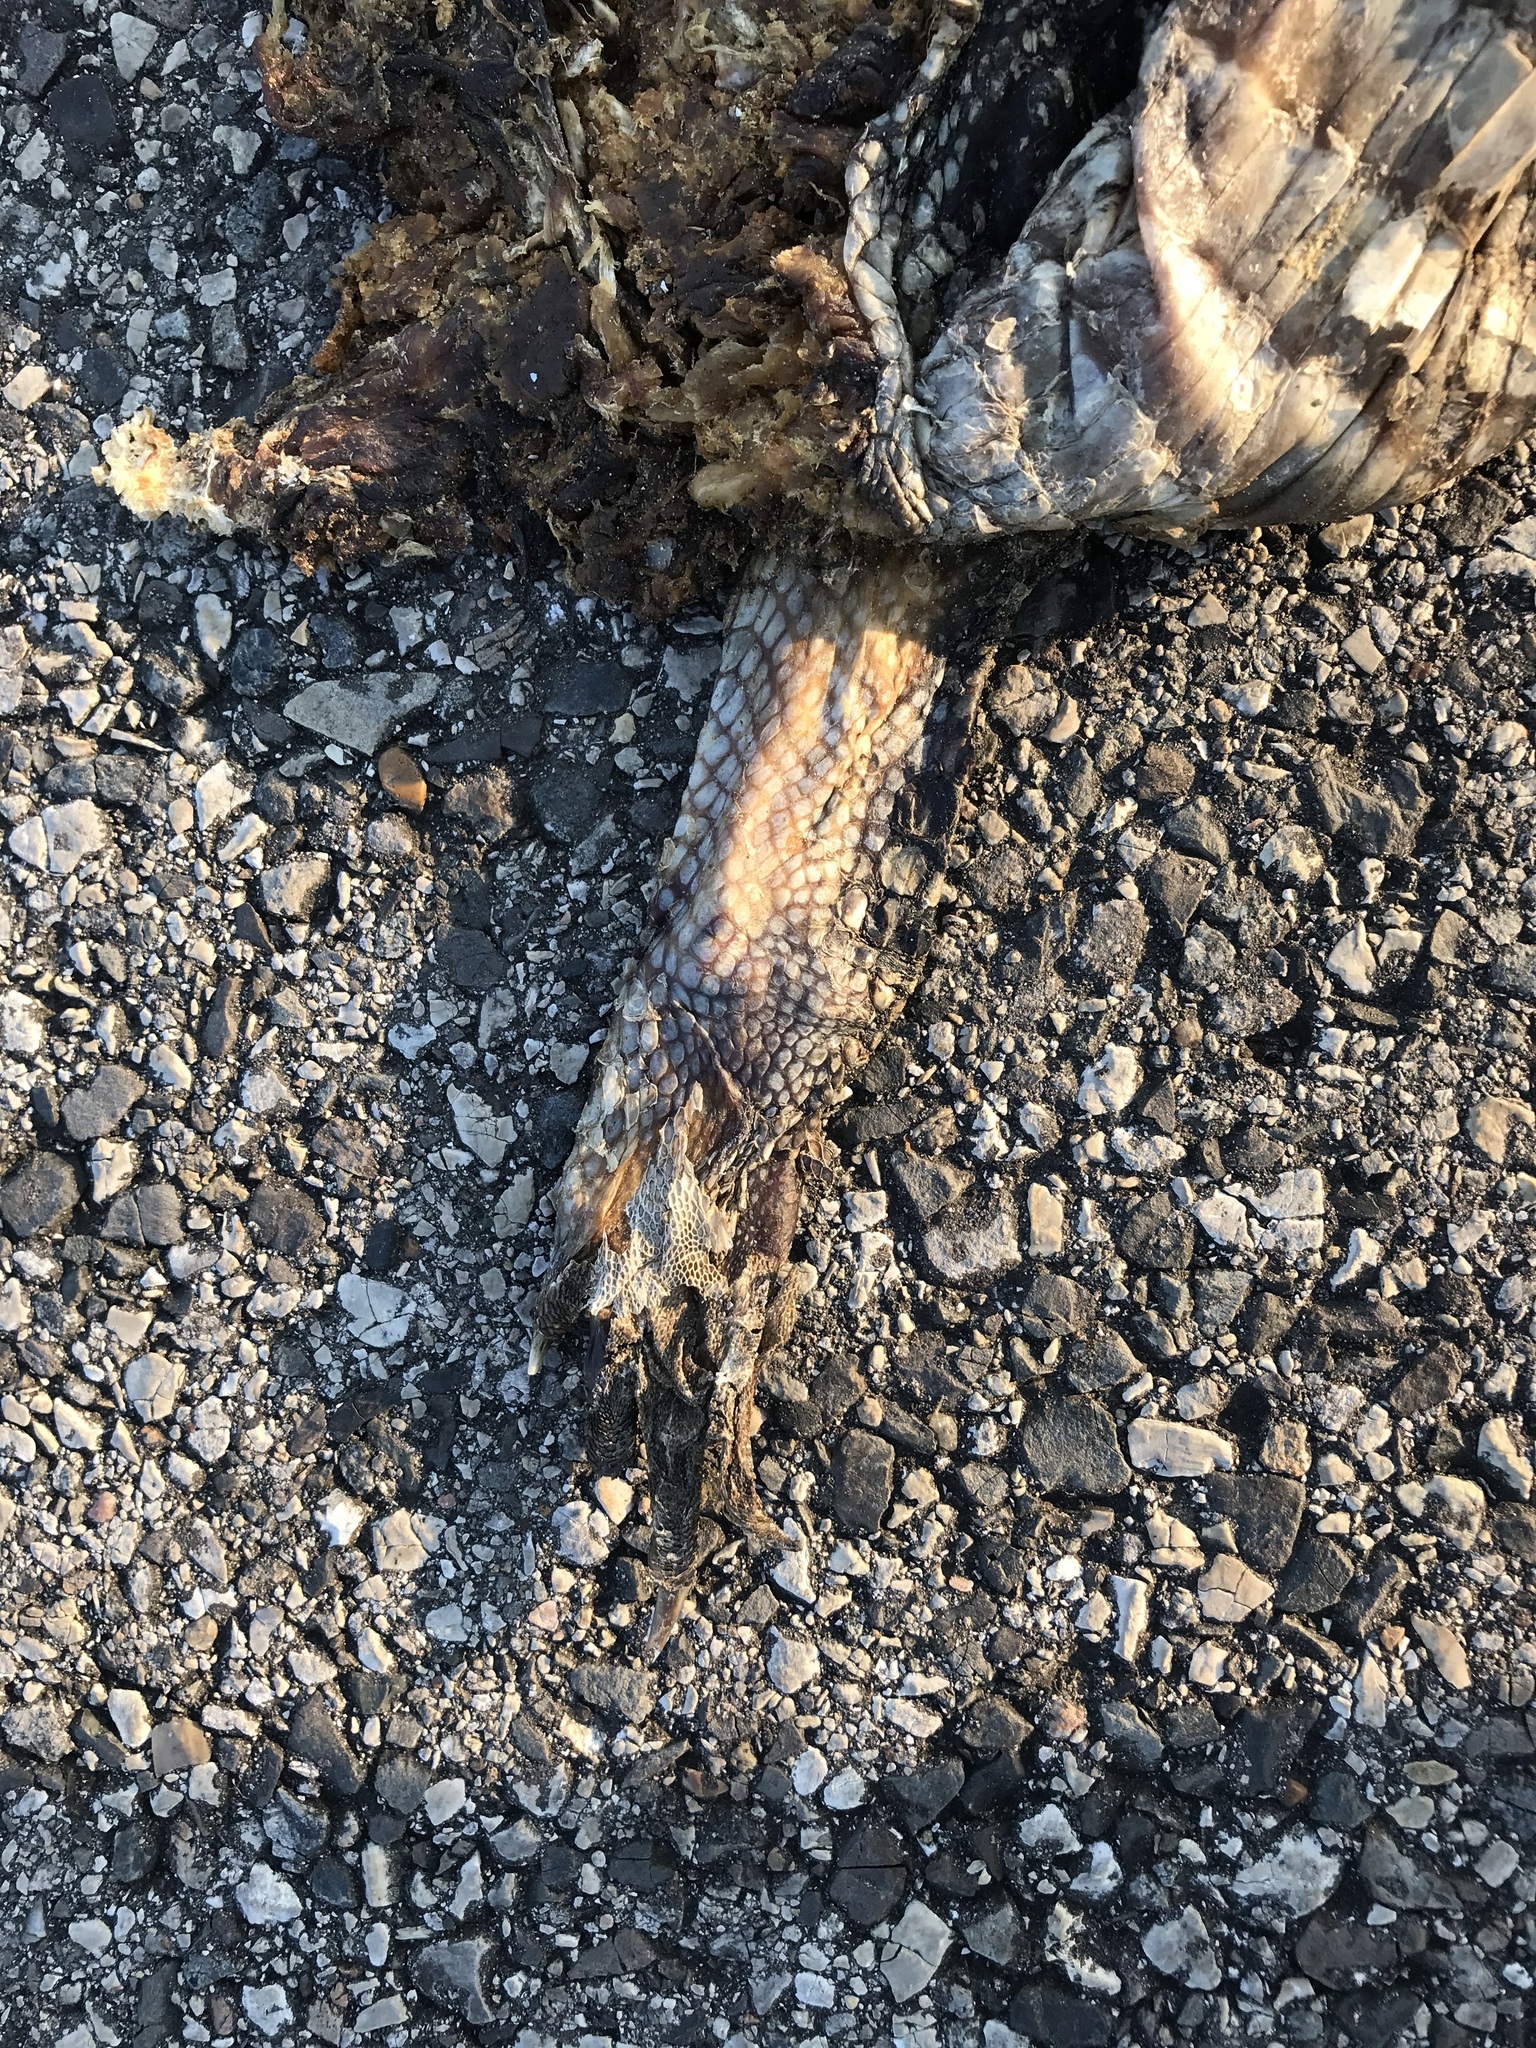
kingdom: Animalia
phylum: Chordata
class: Crocodylia
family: Alligatoridae
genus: Alligator
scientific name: Alligator mississippiensis
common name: American alligator
